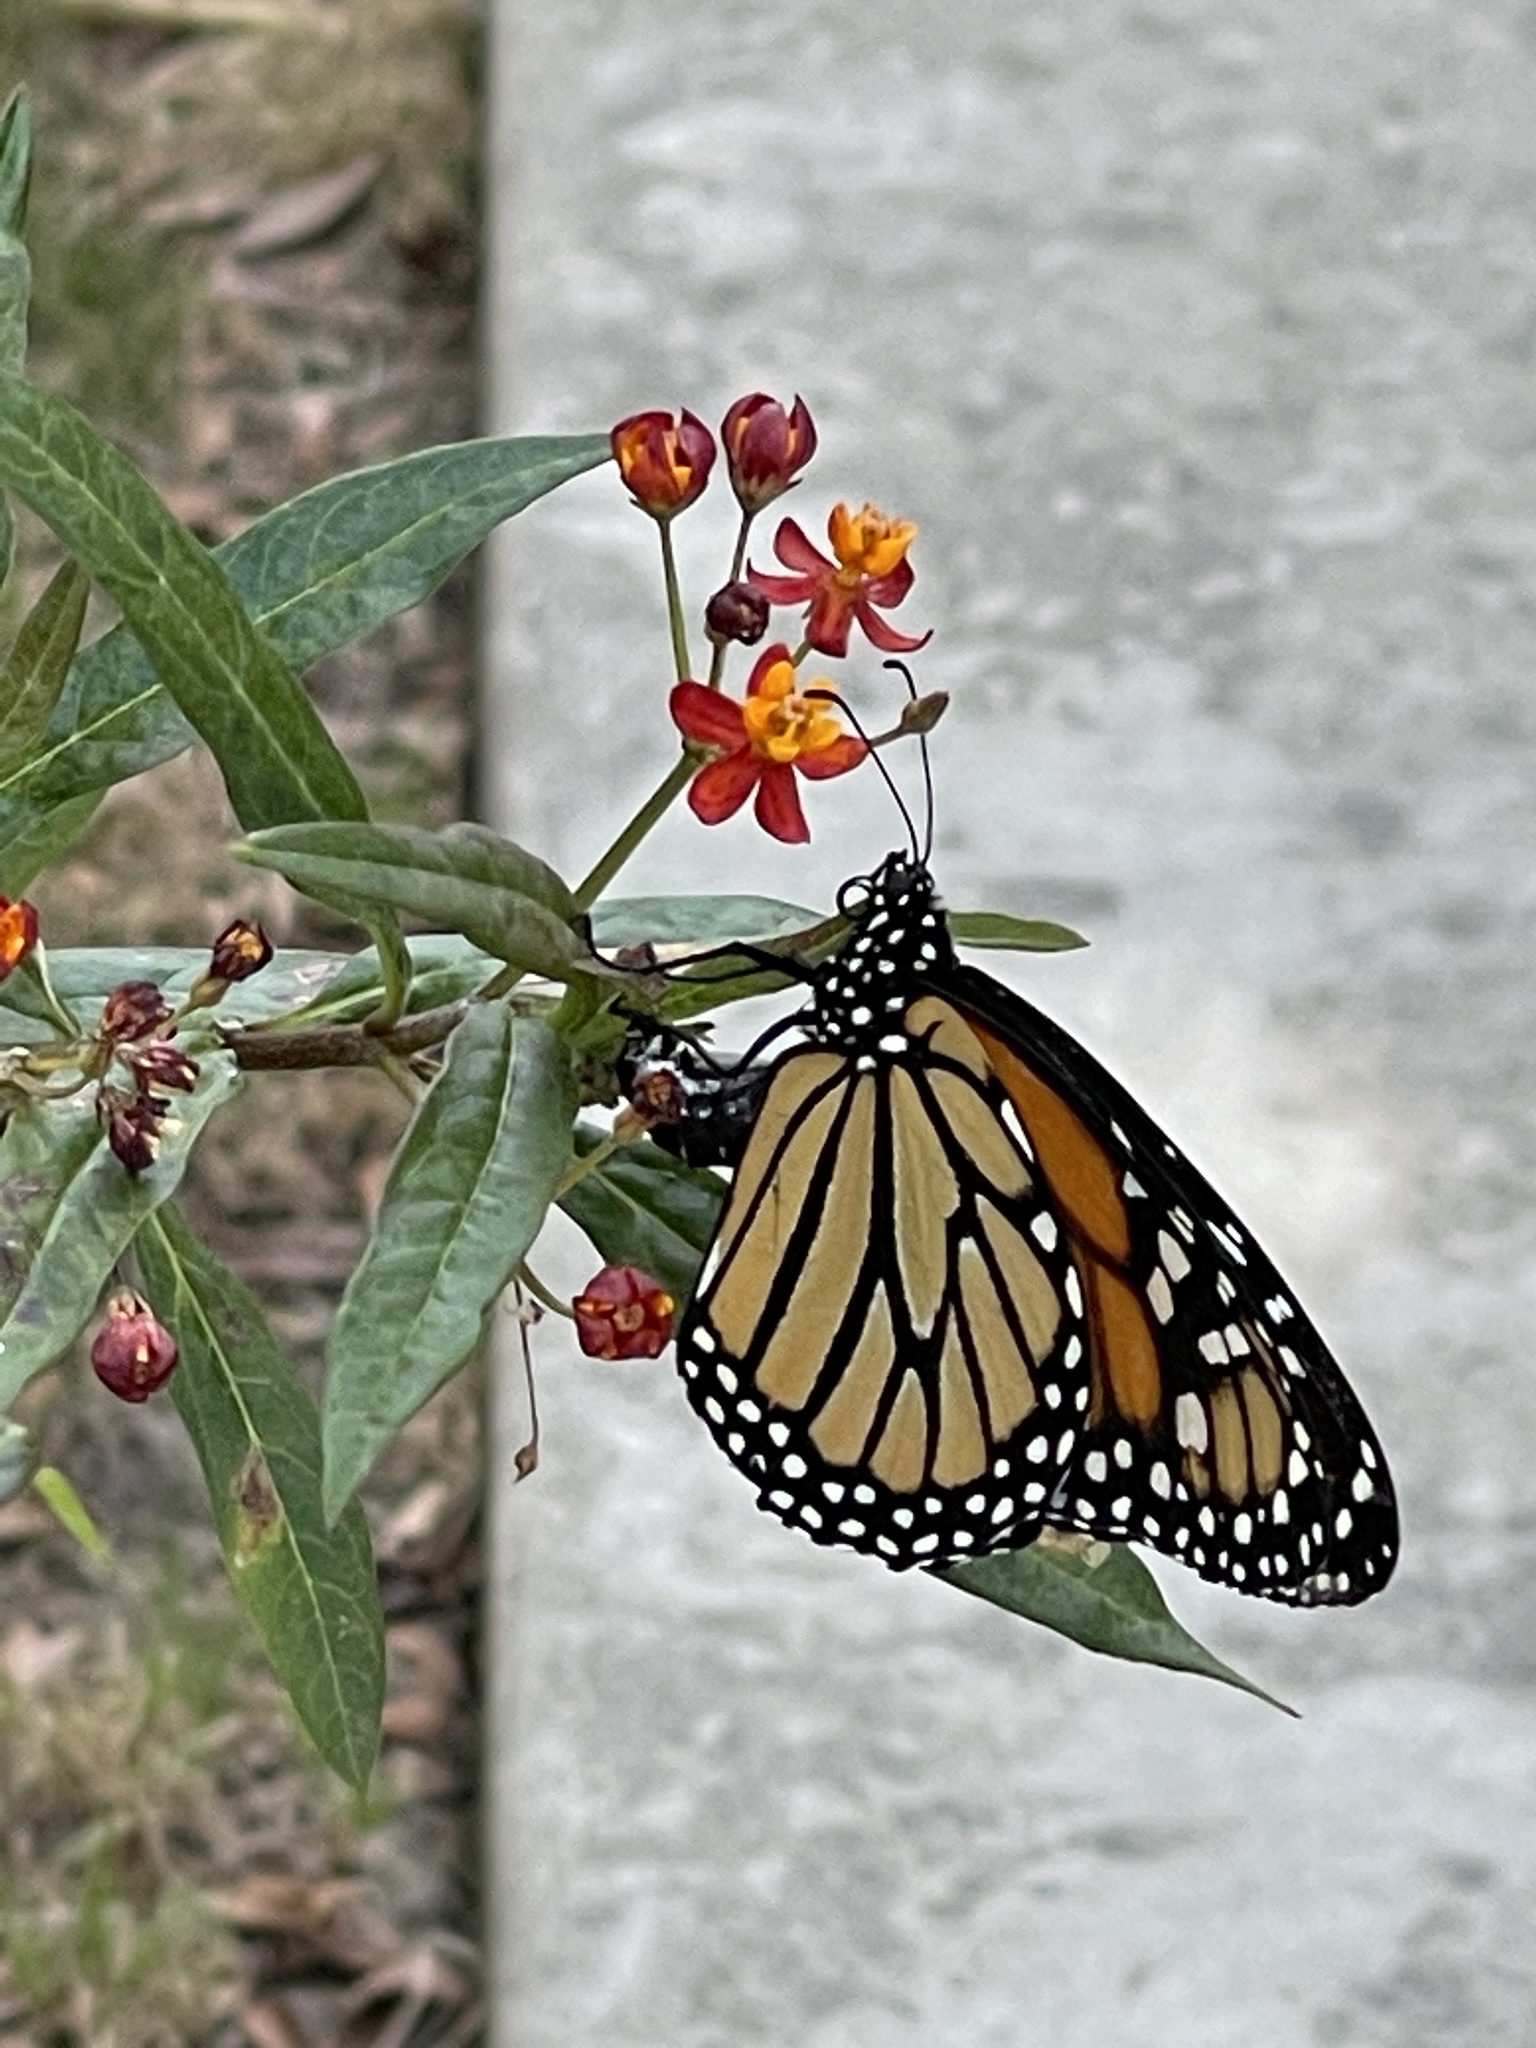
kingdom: Animalia
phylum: Arthropoda
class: Insecta
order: Lepidoptera
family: Nymphalidae
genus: Danaus
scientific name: Danaus plexippus
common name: Monarch
